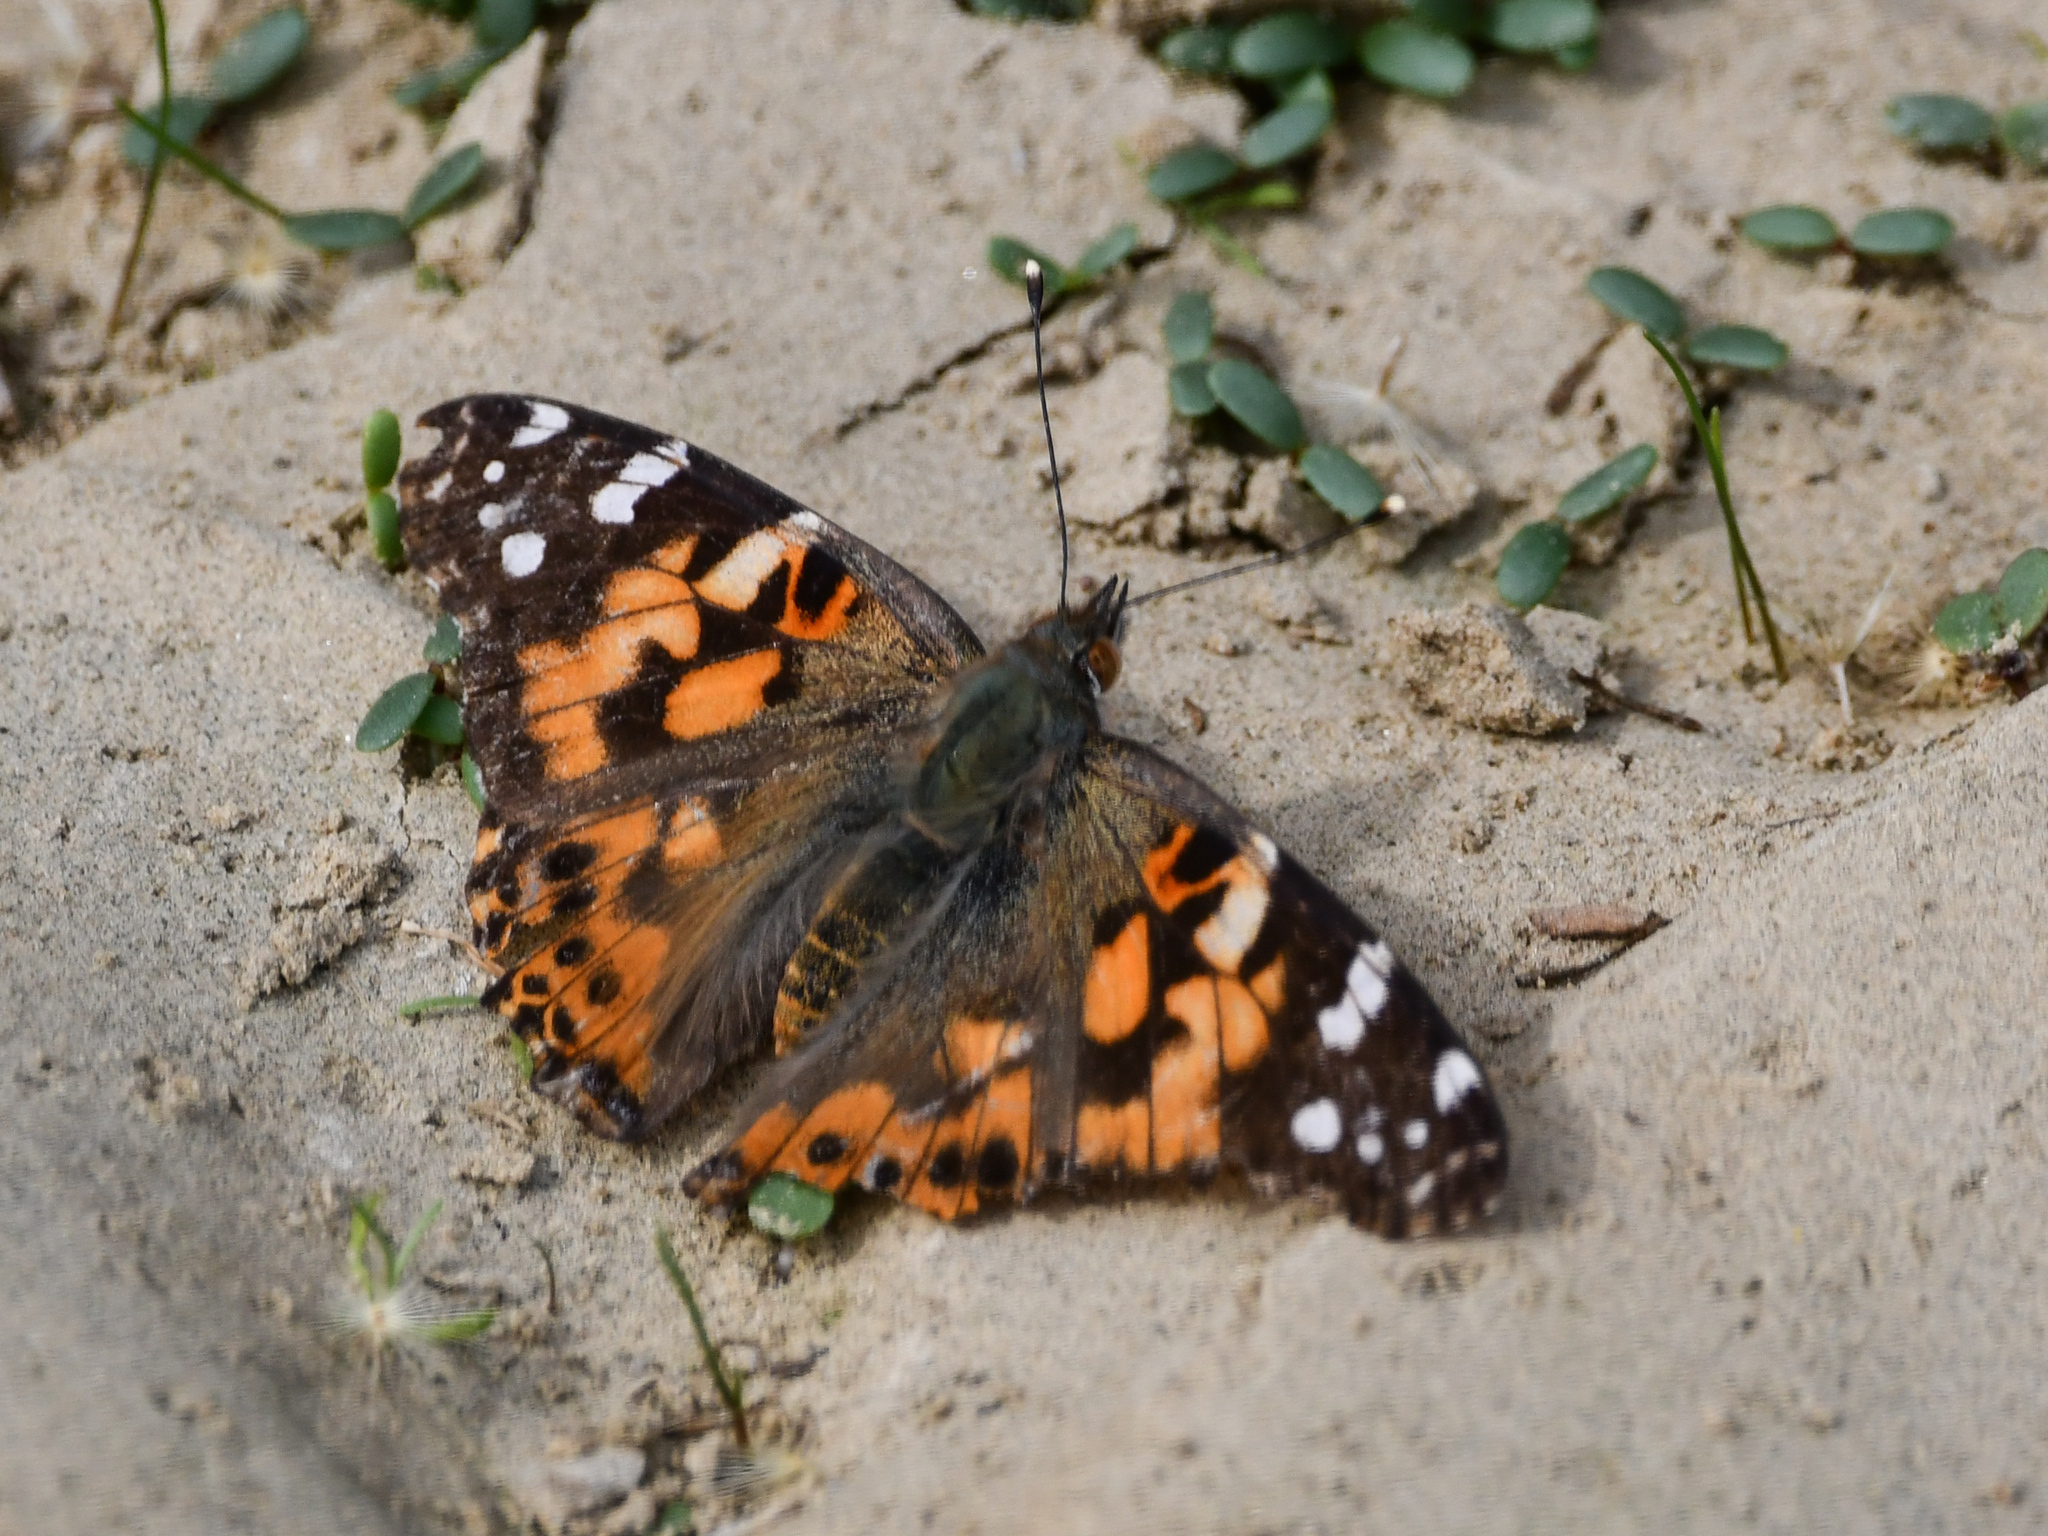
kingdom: Animalia
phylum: Arthropoda
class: Insecta
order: Lepidoptera
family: Nymphalidae
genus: Vanessa
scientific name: Vanessa cardui
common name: Painted lady
